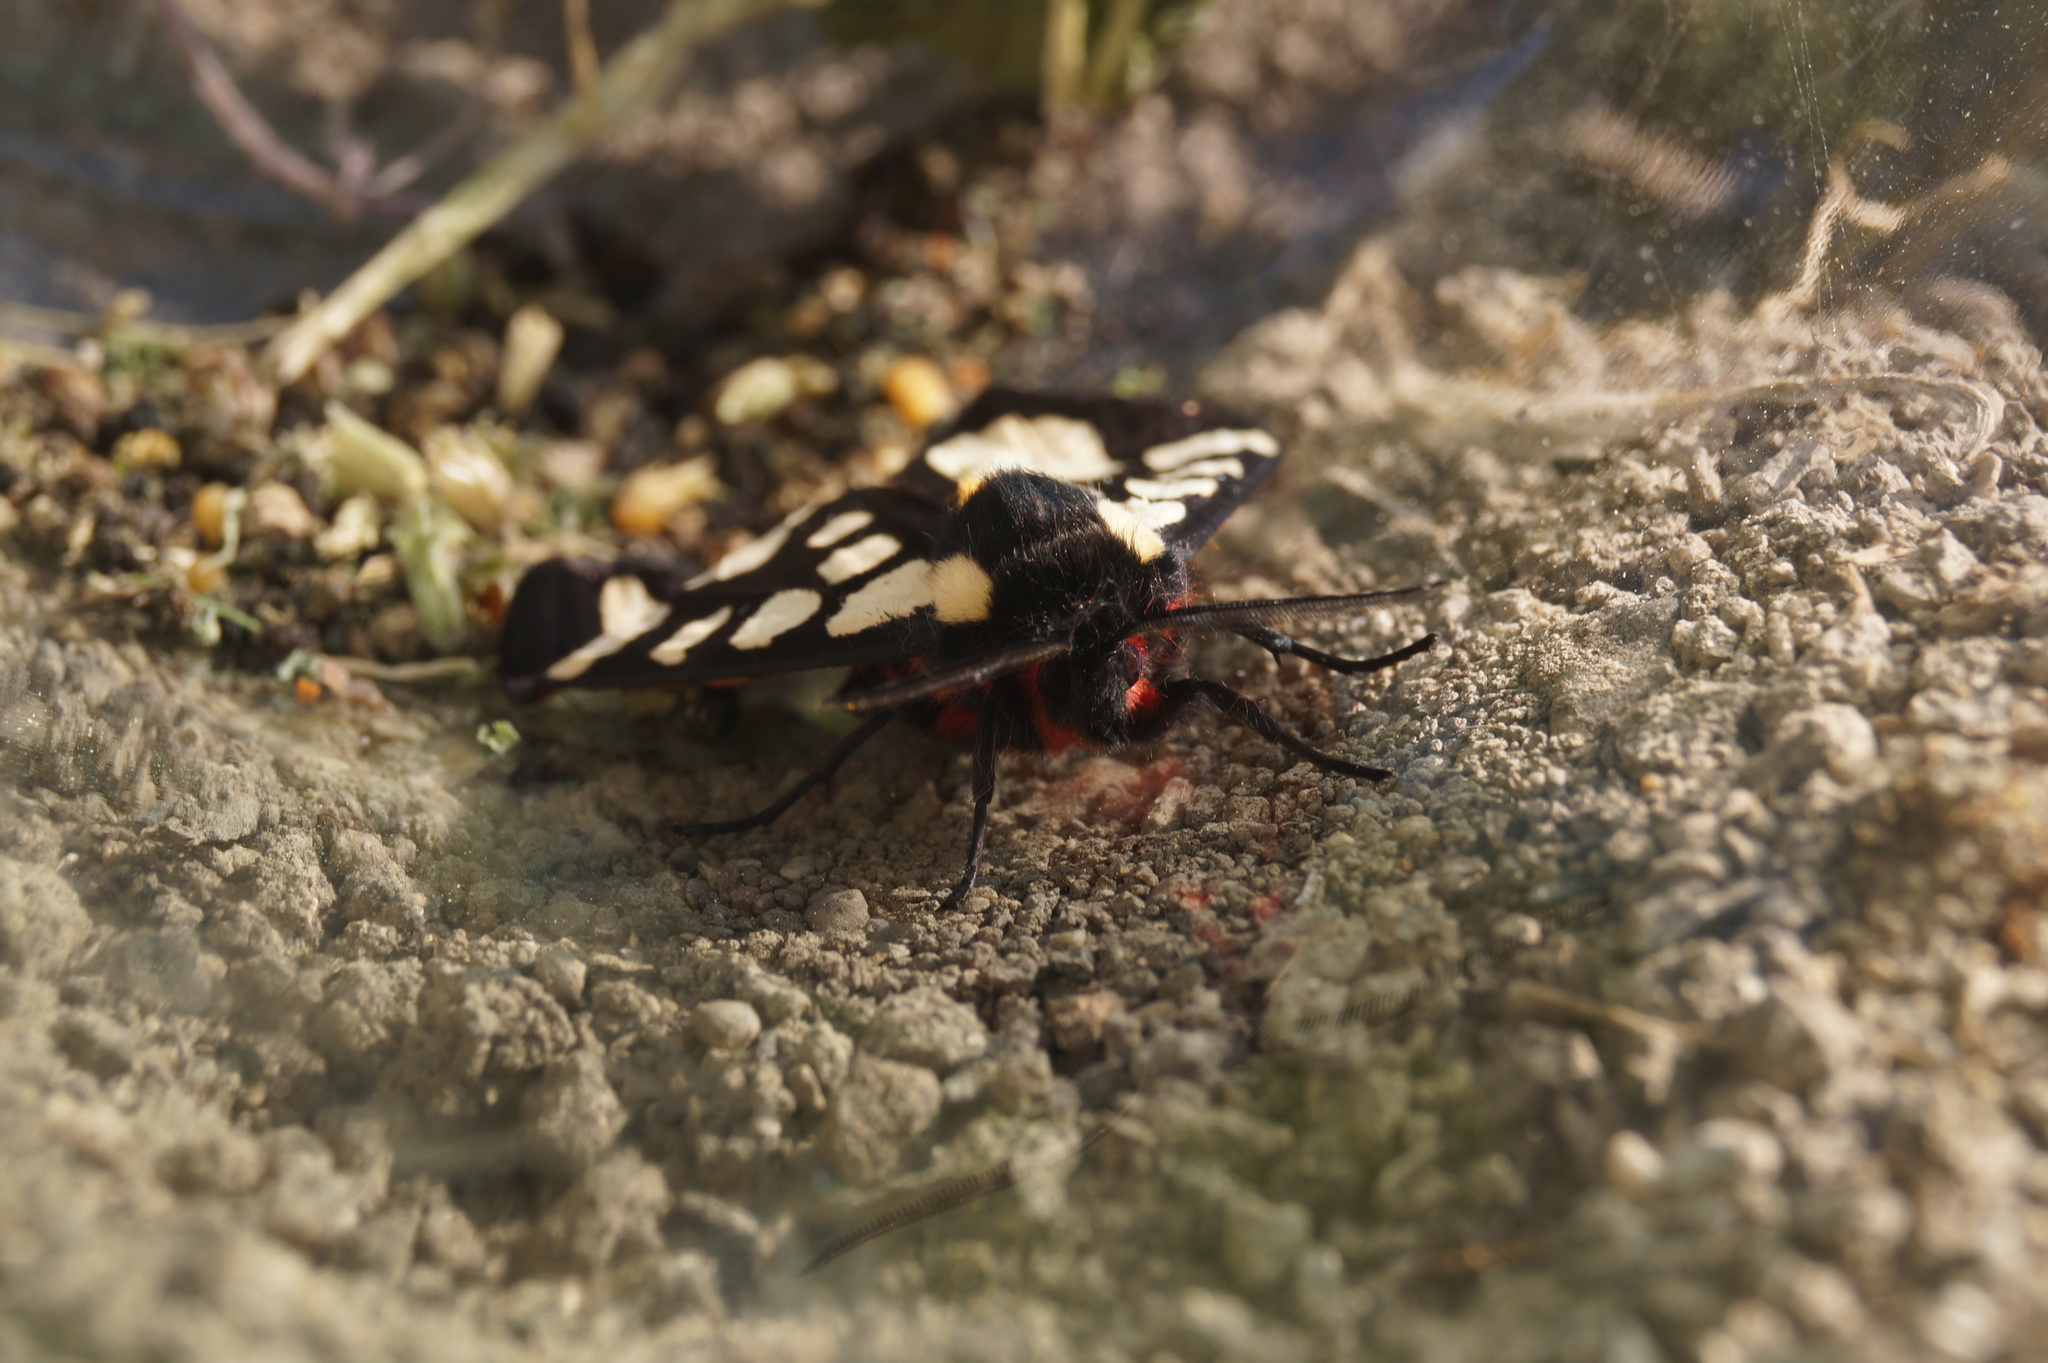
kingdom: Animalia
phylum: Arthropoda
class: Insecta
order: Lepidoptera
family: Erebidae
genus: Epicallia
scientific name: Epicallia villica
